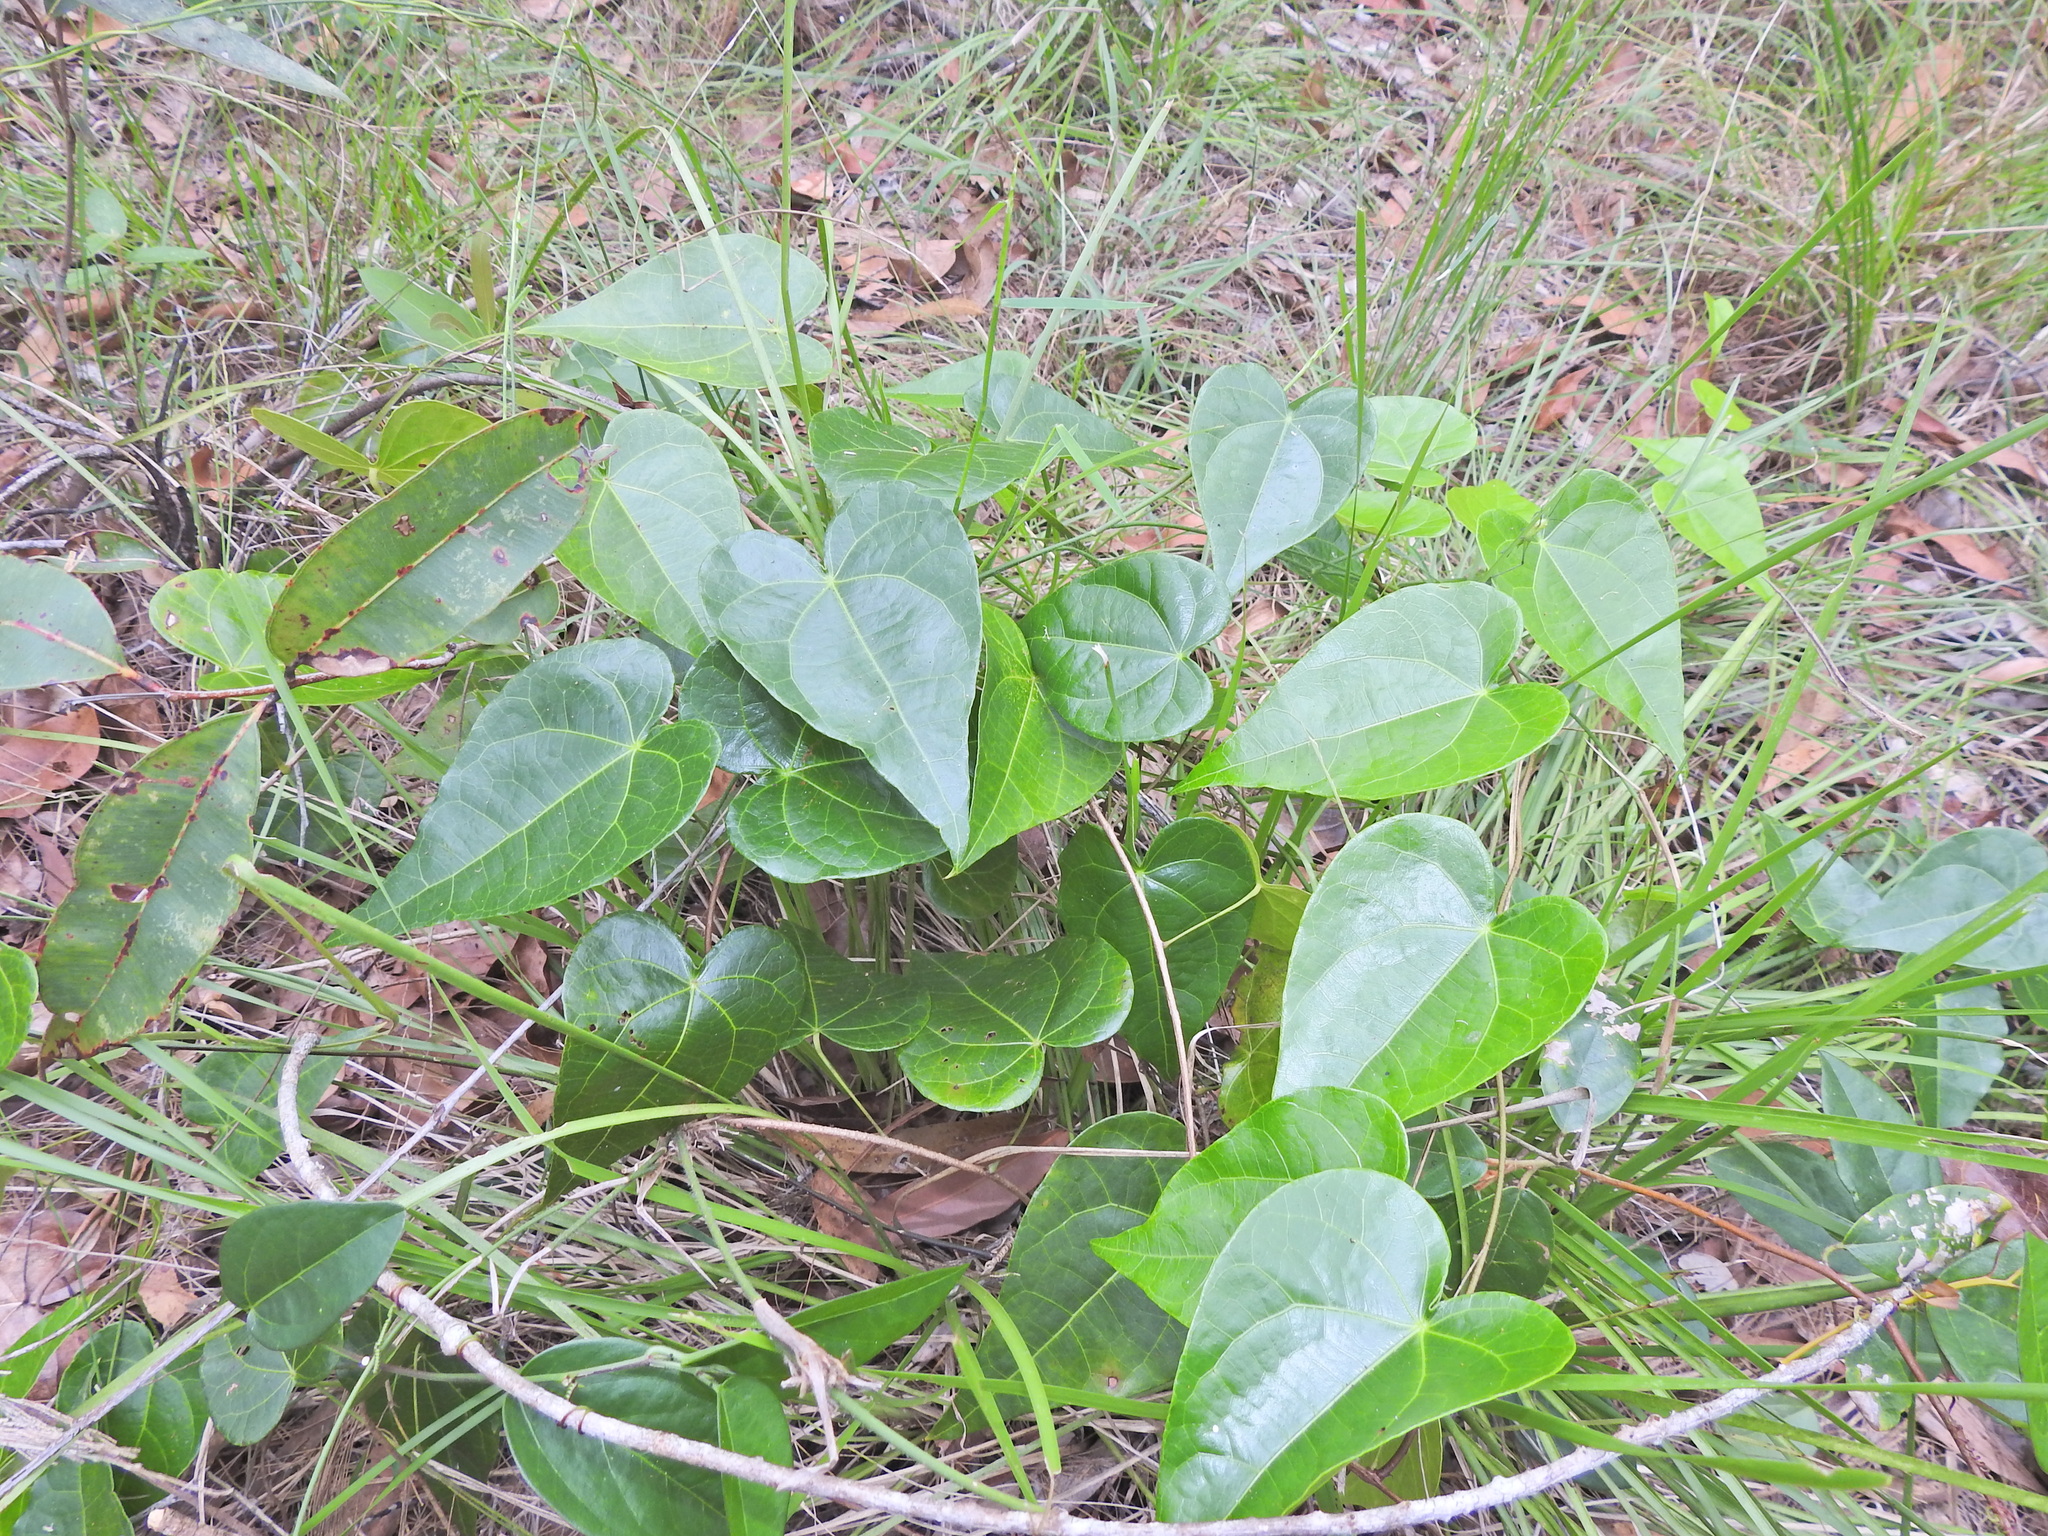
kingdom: Plantae
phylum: Tracheophyta
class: Magnoliopsida
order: Ranunculales
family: Menispermaceae
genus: Sarcopetalum
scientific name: Sarcopetalum harveyanum
